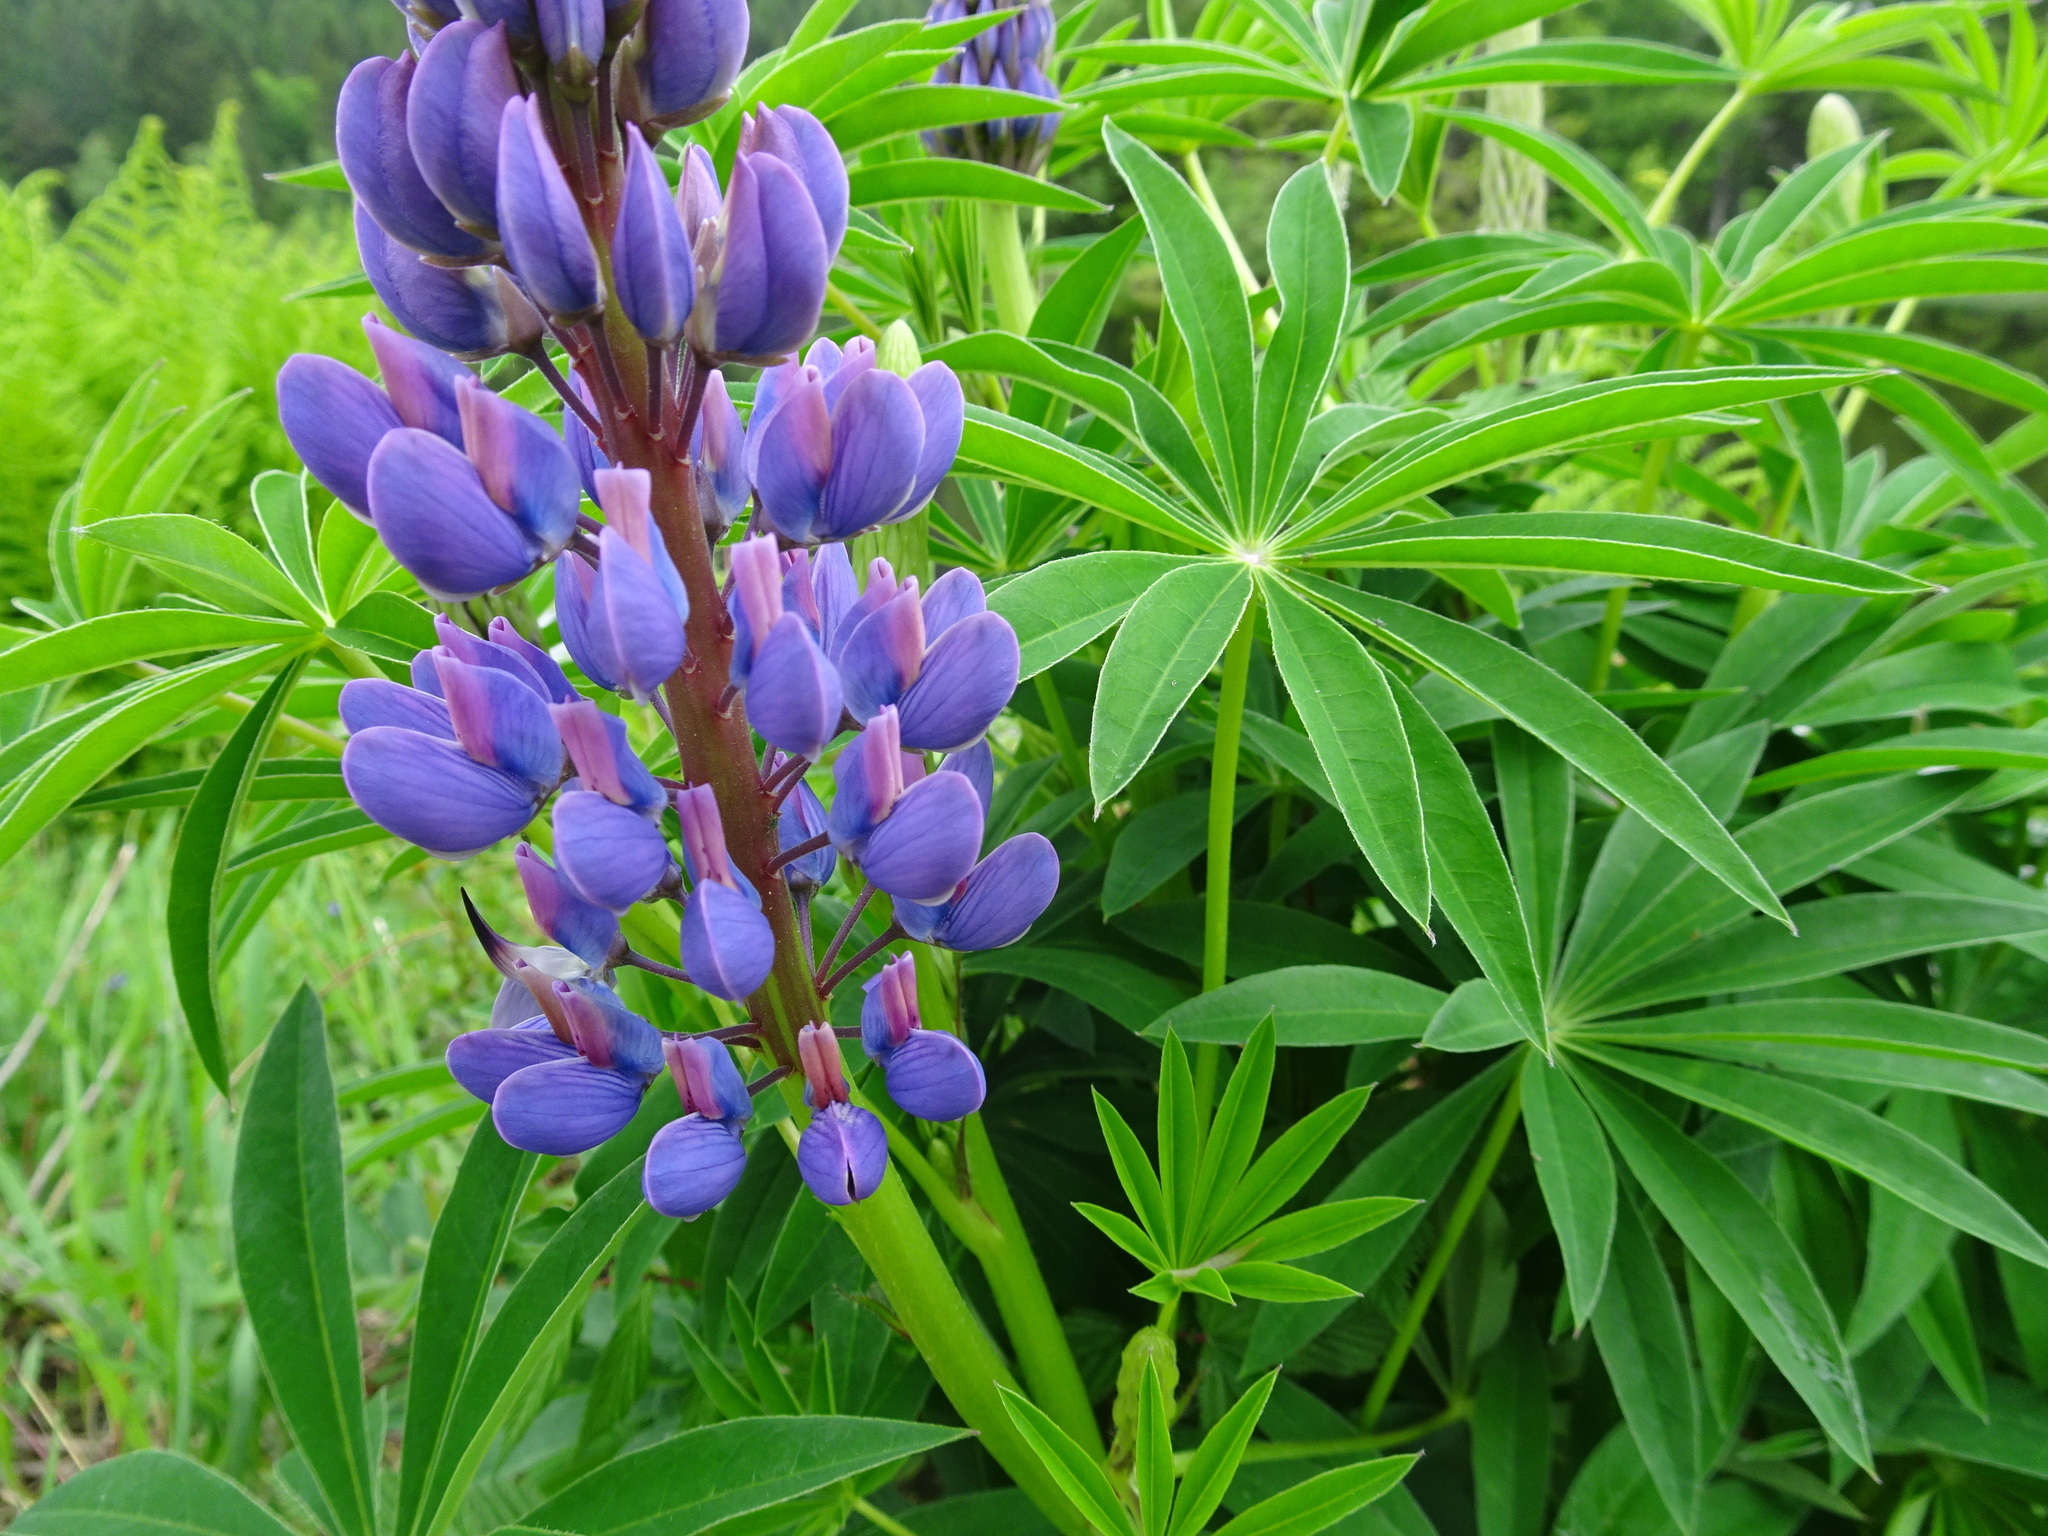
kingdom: Plantae
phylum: Tracheophyta
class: Magnoliopsida
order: Fabales
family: Fabaceae
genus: Lupinus
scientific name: Lupinus polyphyllus
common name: Garden lupin
